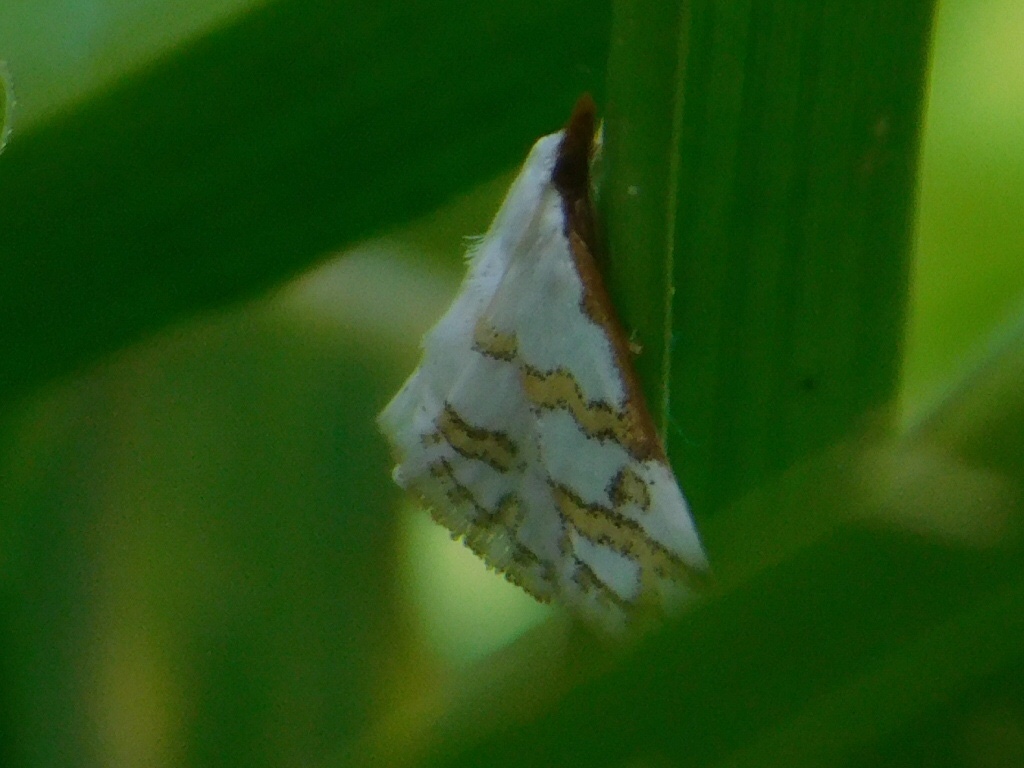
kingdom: Animalia
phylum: Arthropoda
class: Insecta
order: Lepidoptera
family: Crambidae
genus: Leptosteges
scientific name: Leptosteges
